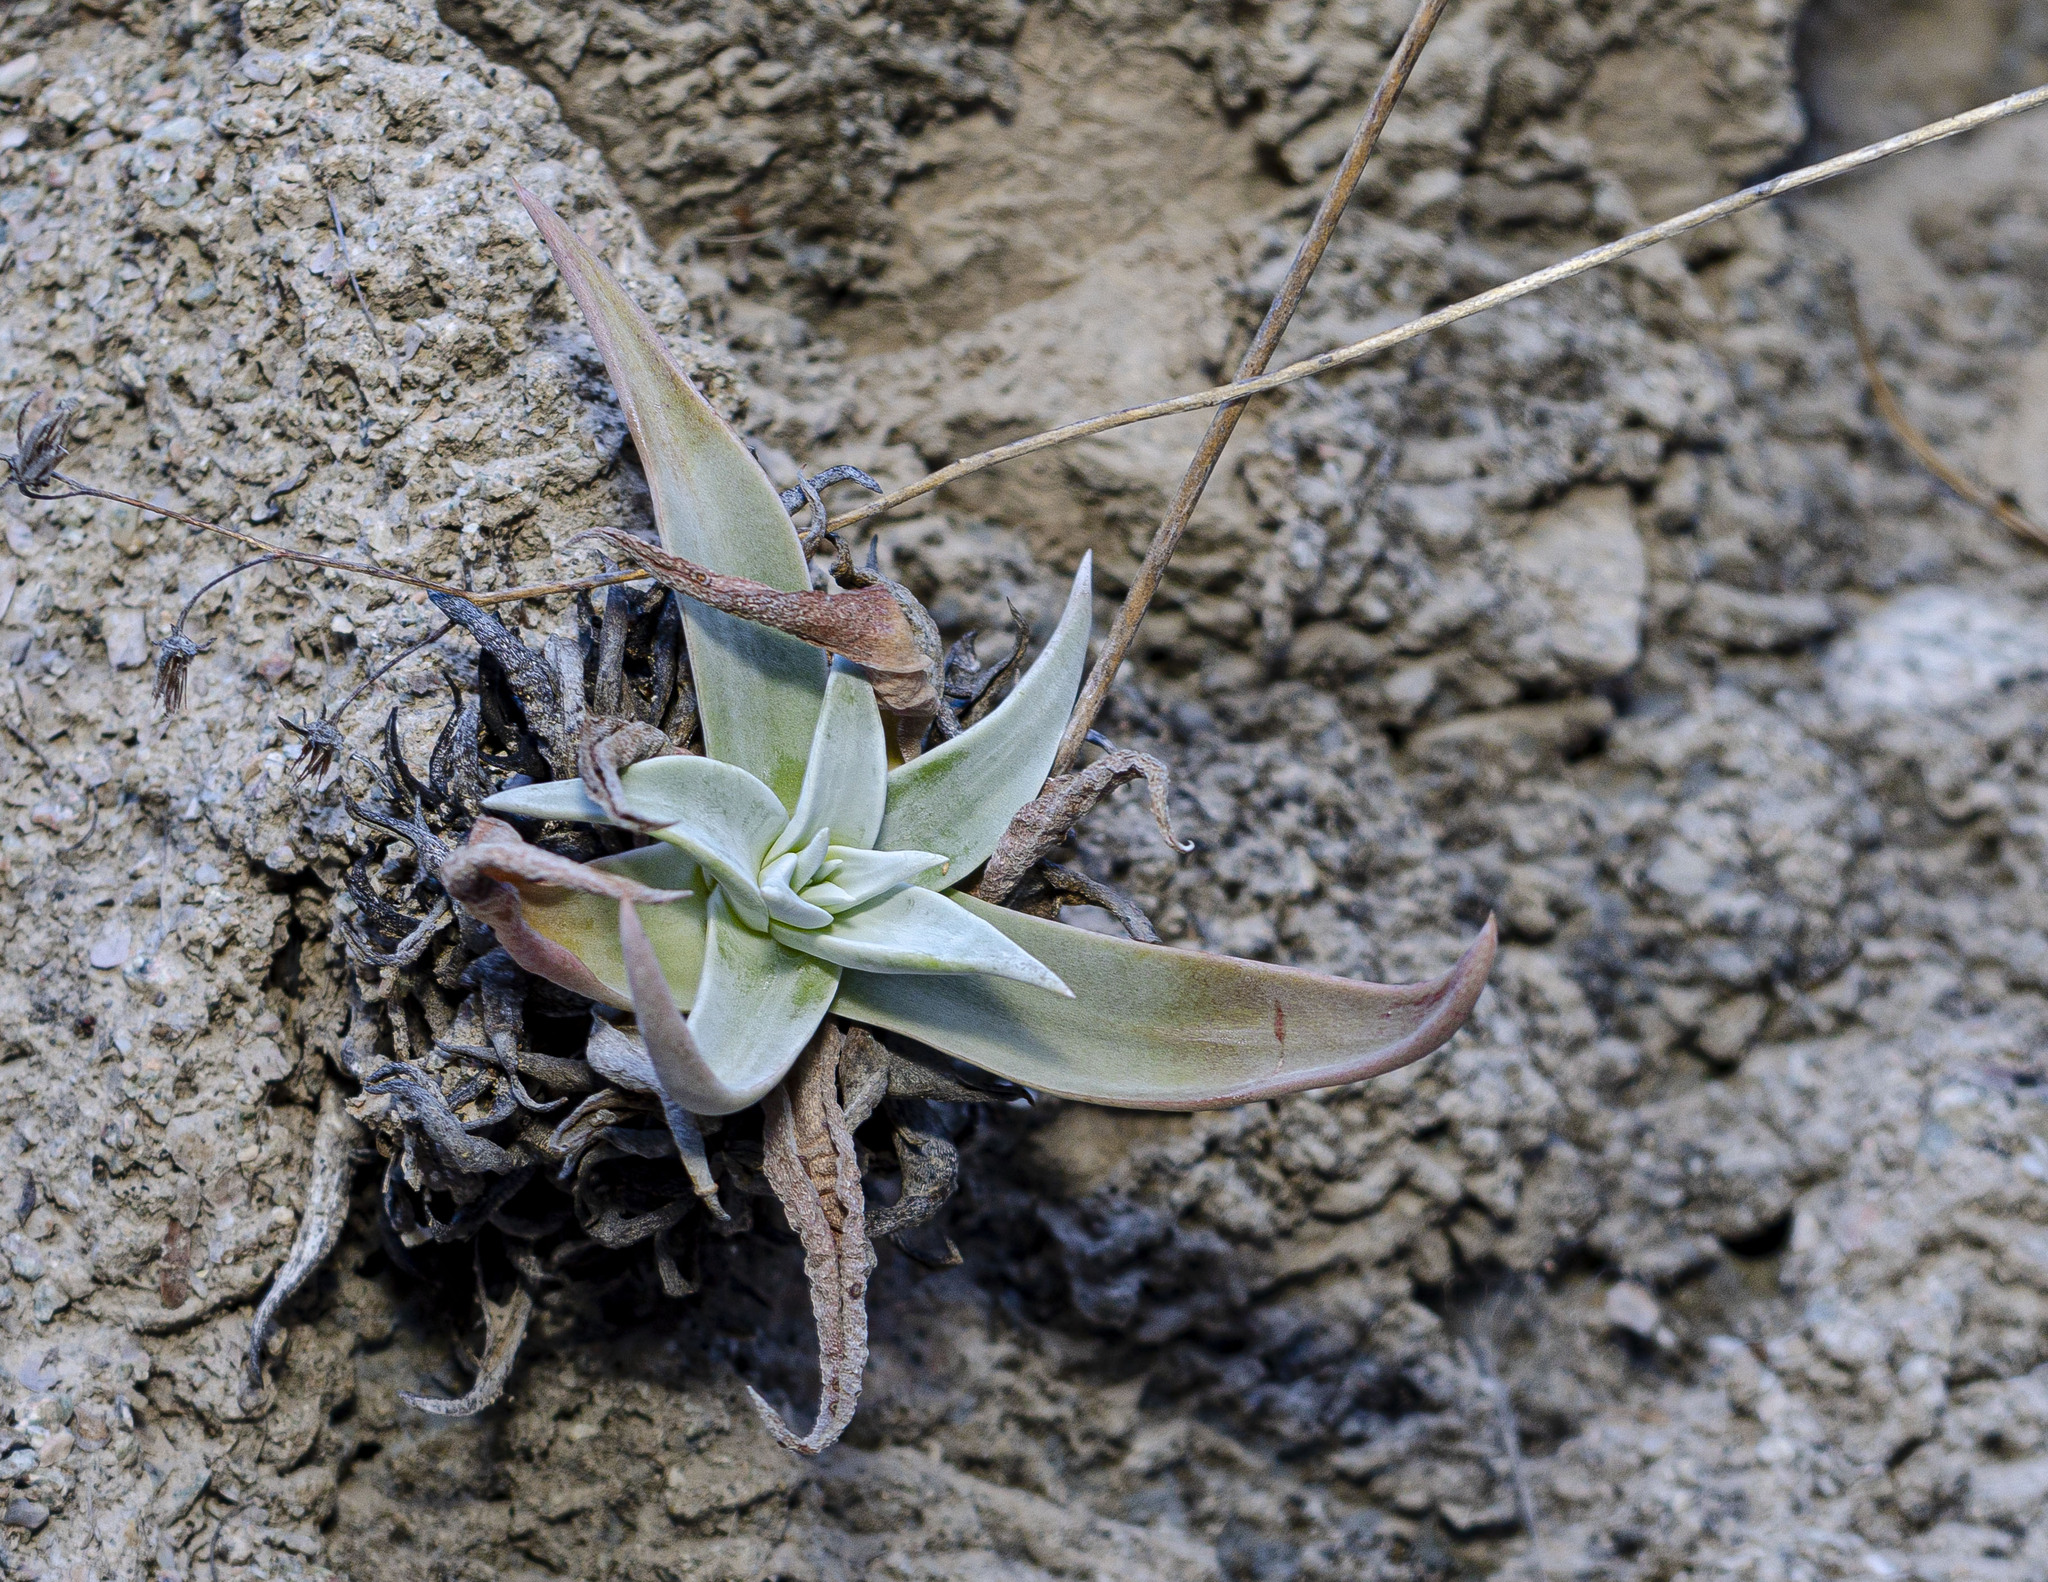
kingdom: Plantae
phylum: Tracheophyta
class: Magnoliopsida
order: Saxifragales
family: Crassulaceae
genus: Dudleya
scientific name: Dudleya nubigena
